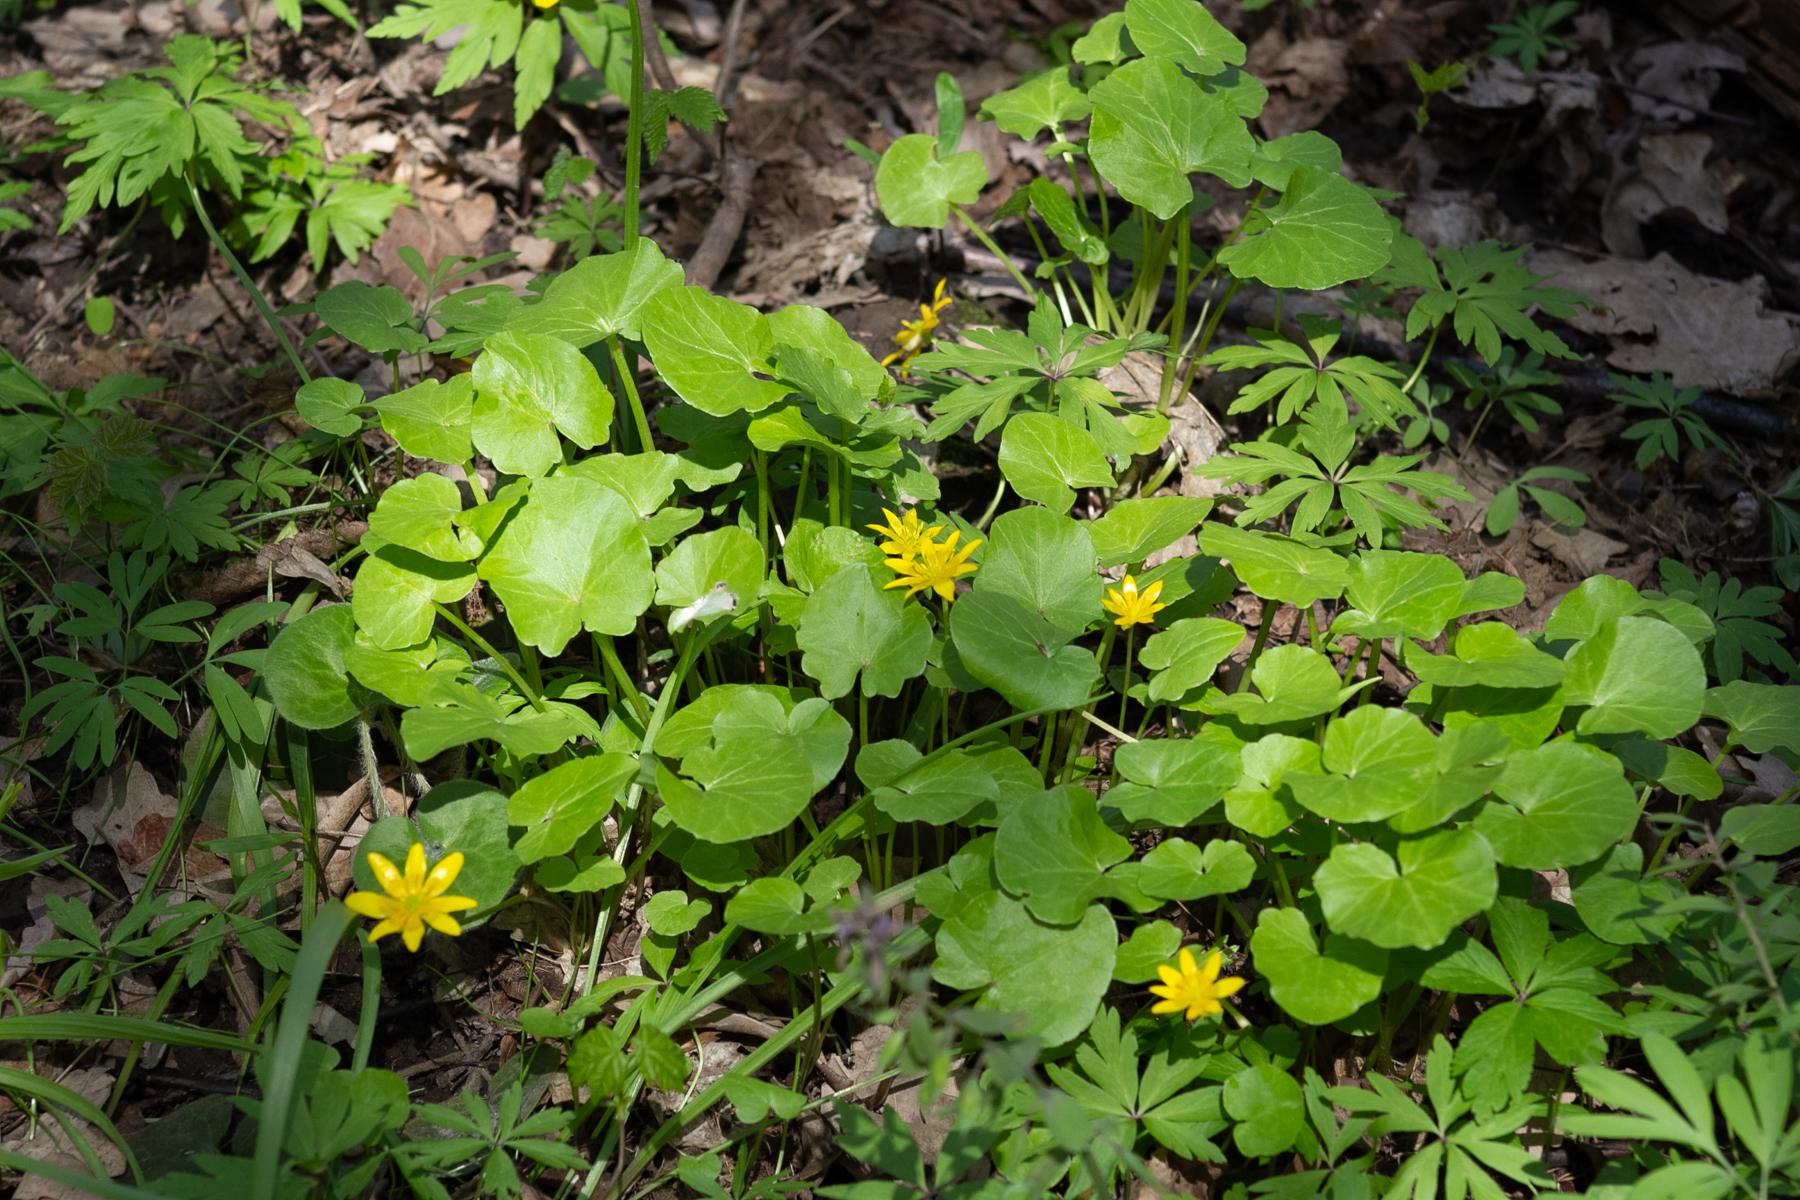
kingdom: Plantae
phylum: Tracheophyta
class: Magnoliopsida
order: Ranunculales
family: Ranunculaceae
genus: Ficaria
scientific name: Ficaria verna
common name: Lesser celandine
